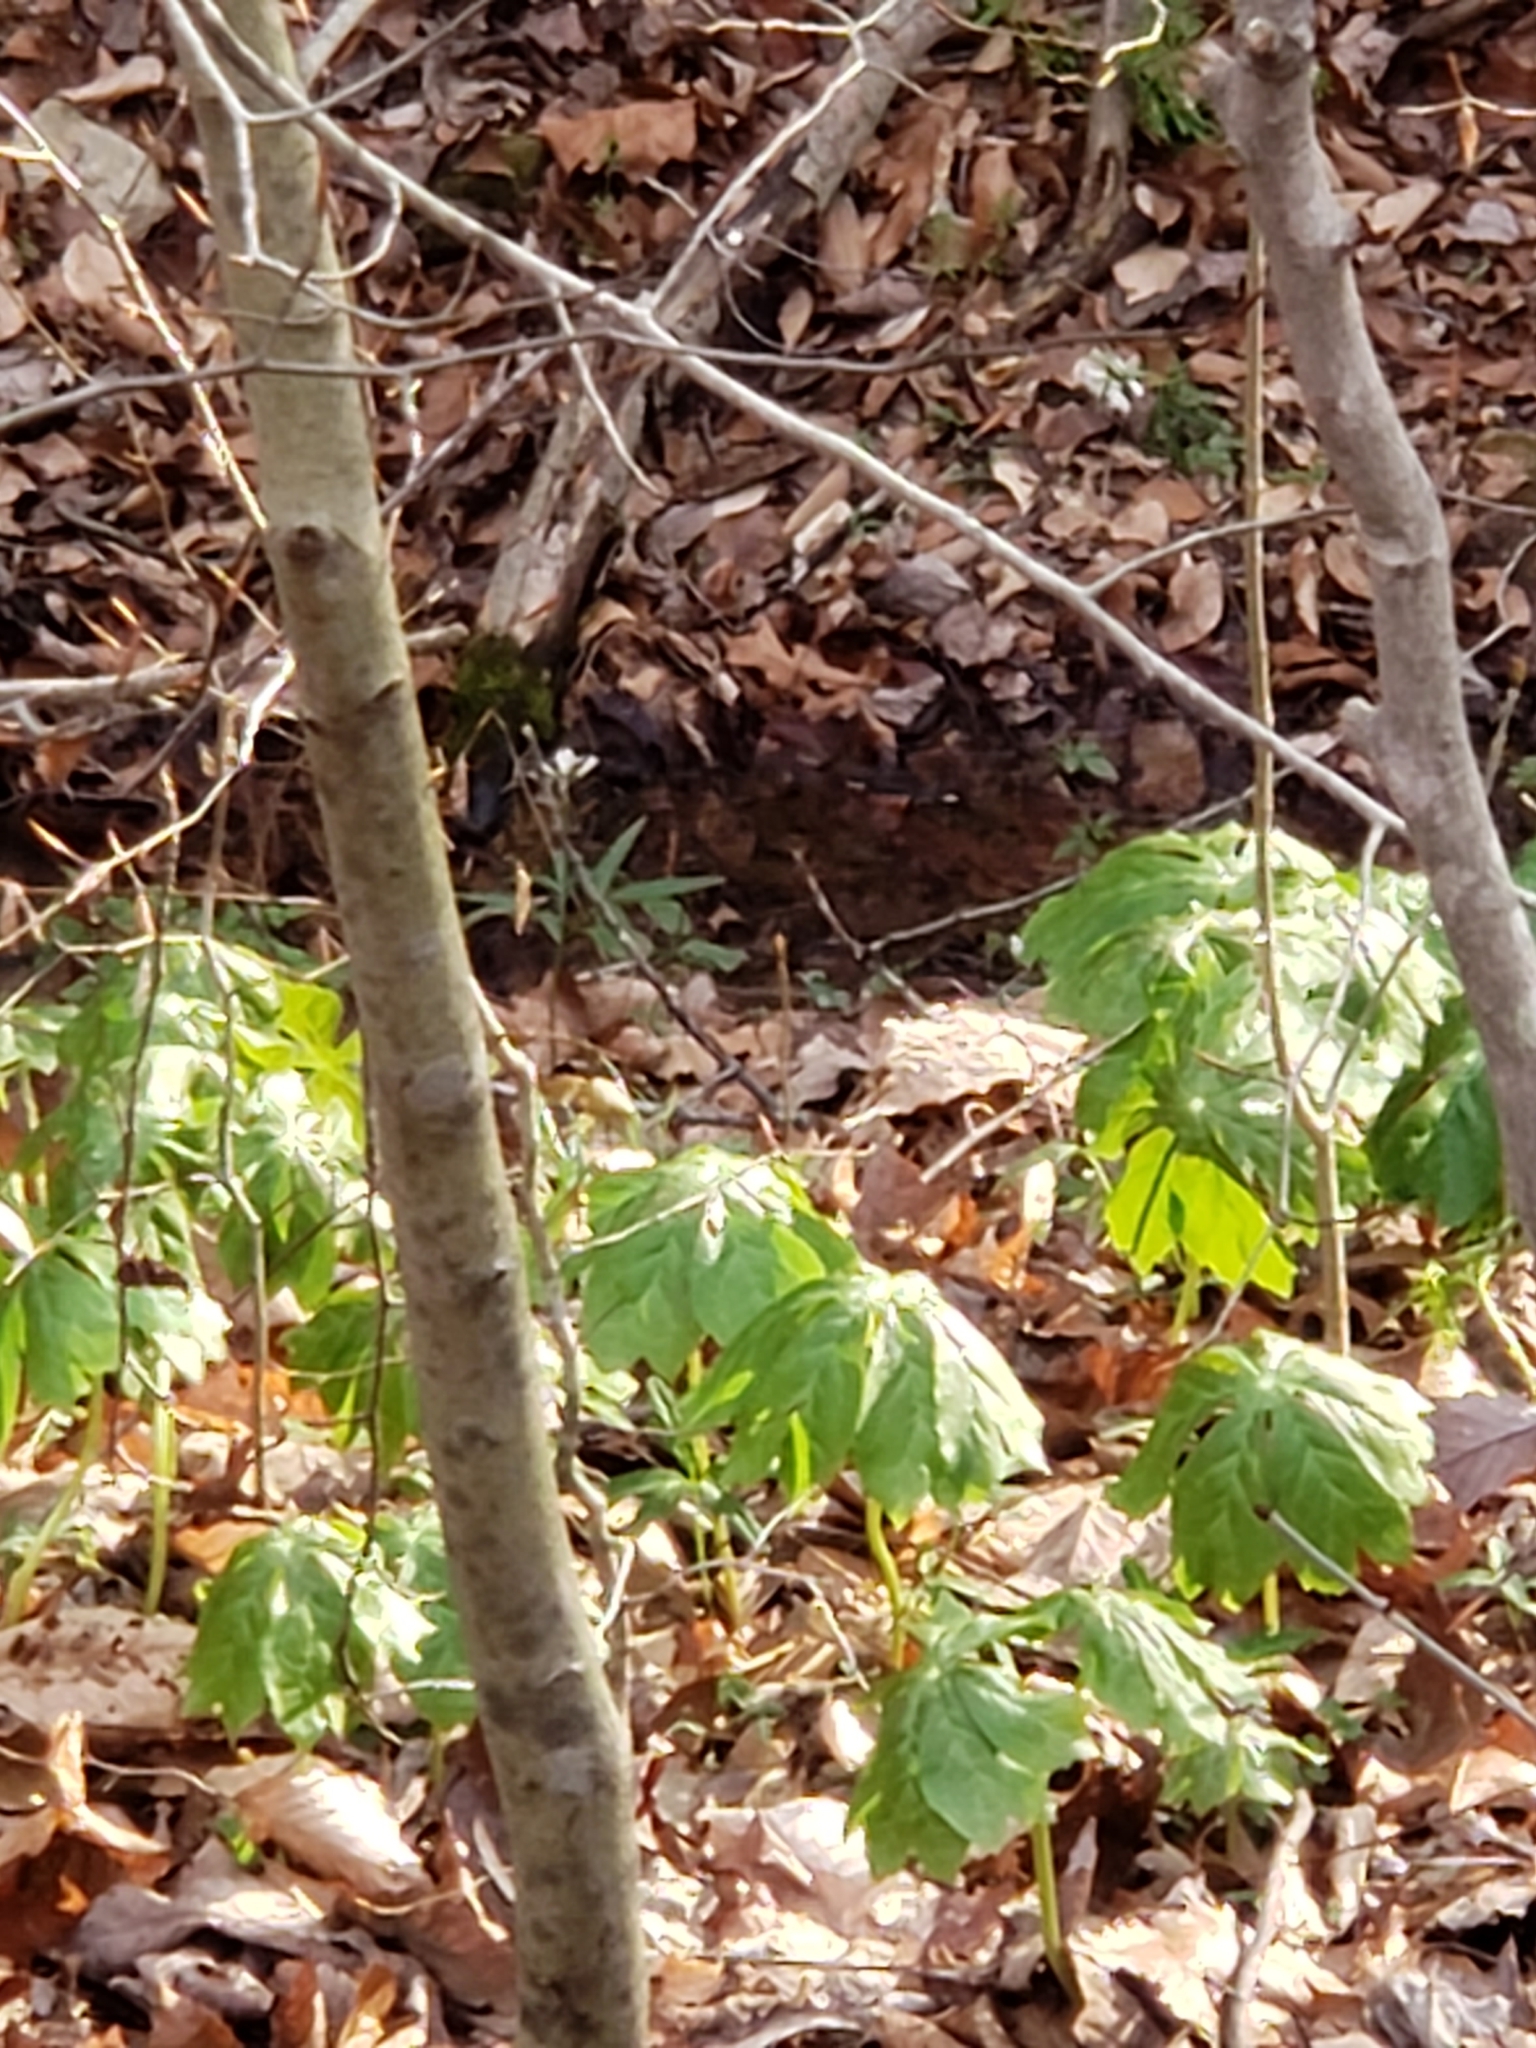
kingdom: Plantae
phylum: Tracheophyta
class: Magnoliopsida
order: Ranunculales
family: Berberidaceae
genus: Podophyllum
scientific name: Podophyllum peltatum
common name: Wild mandrake
